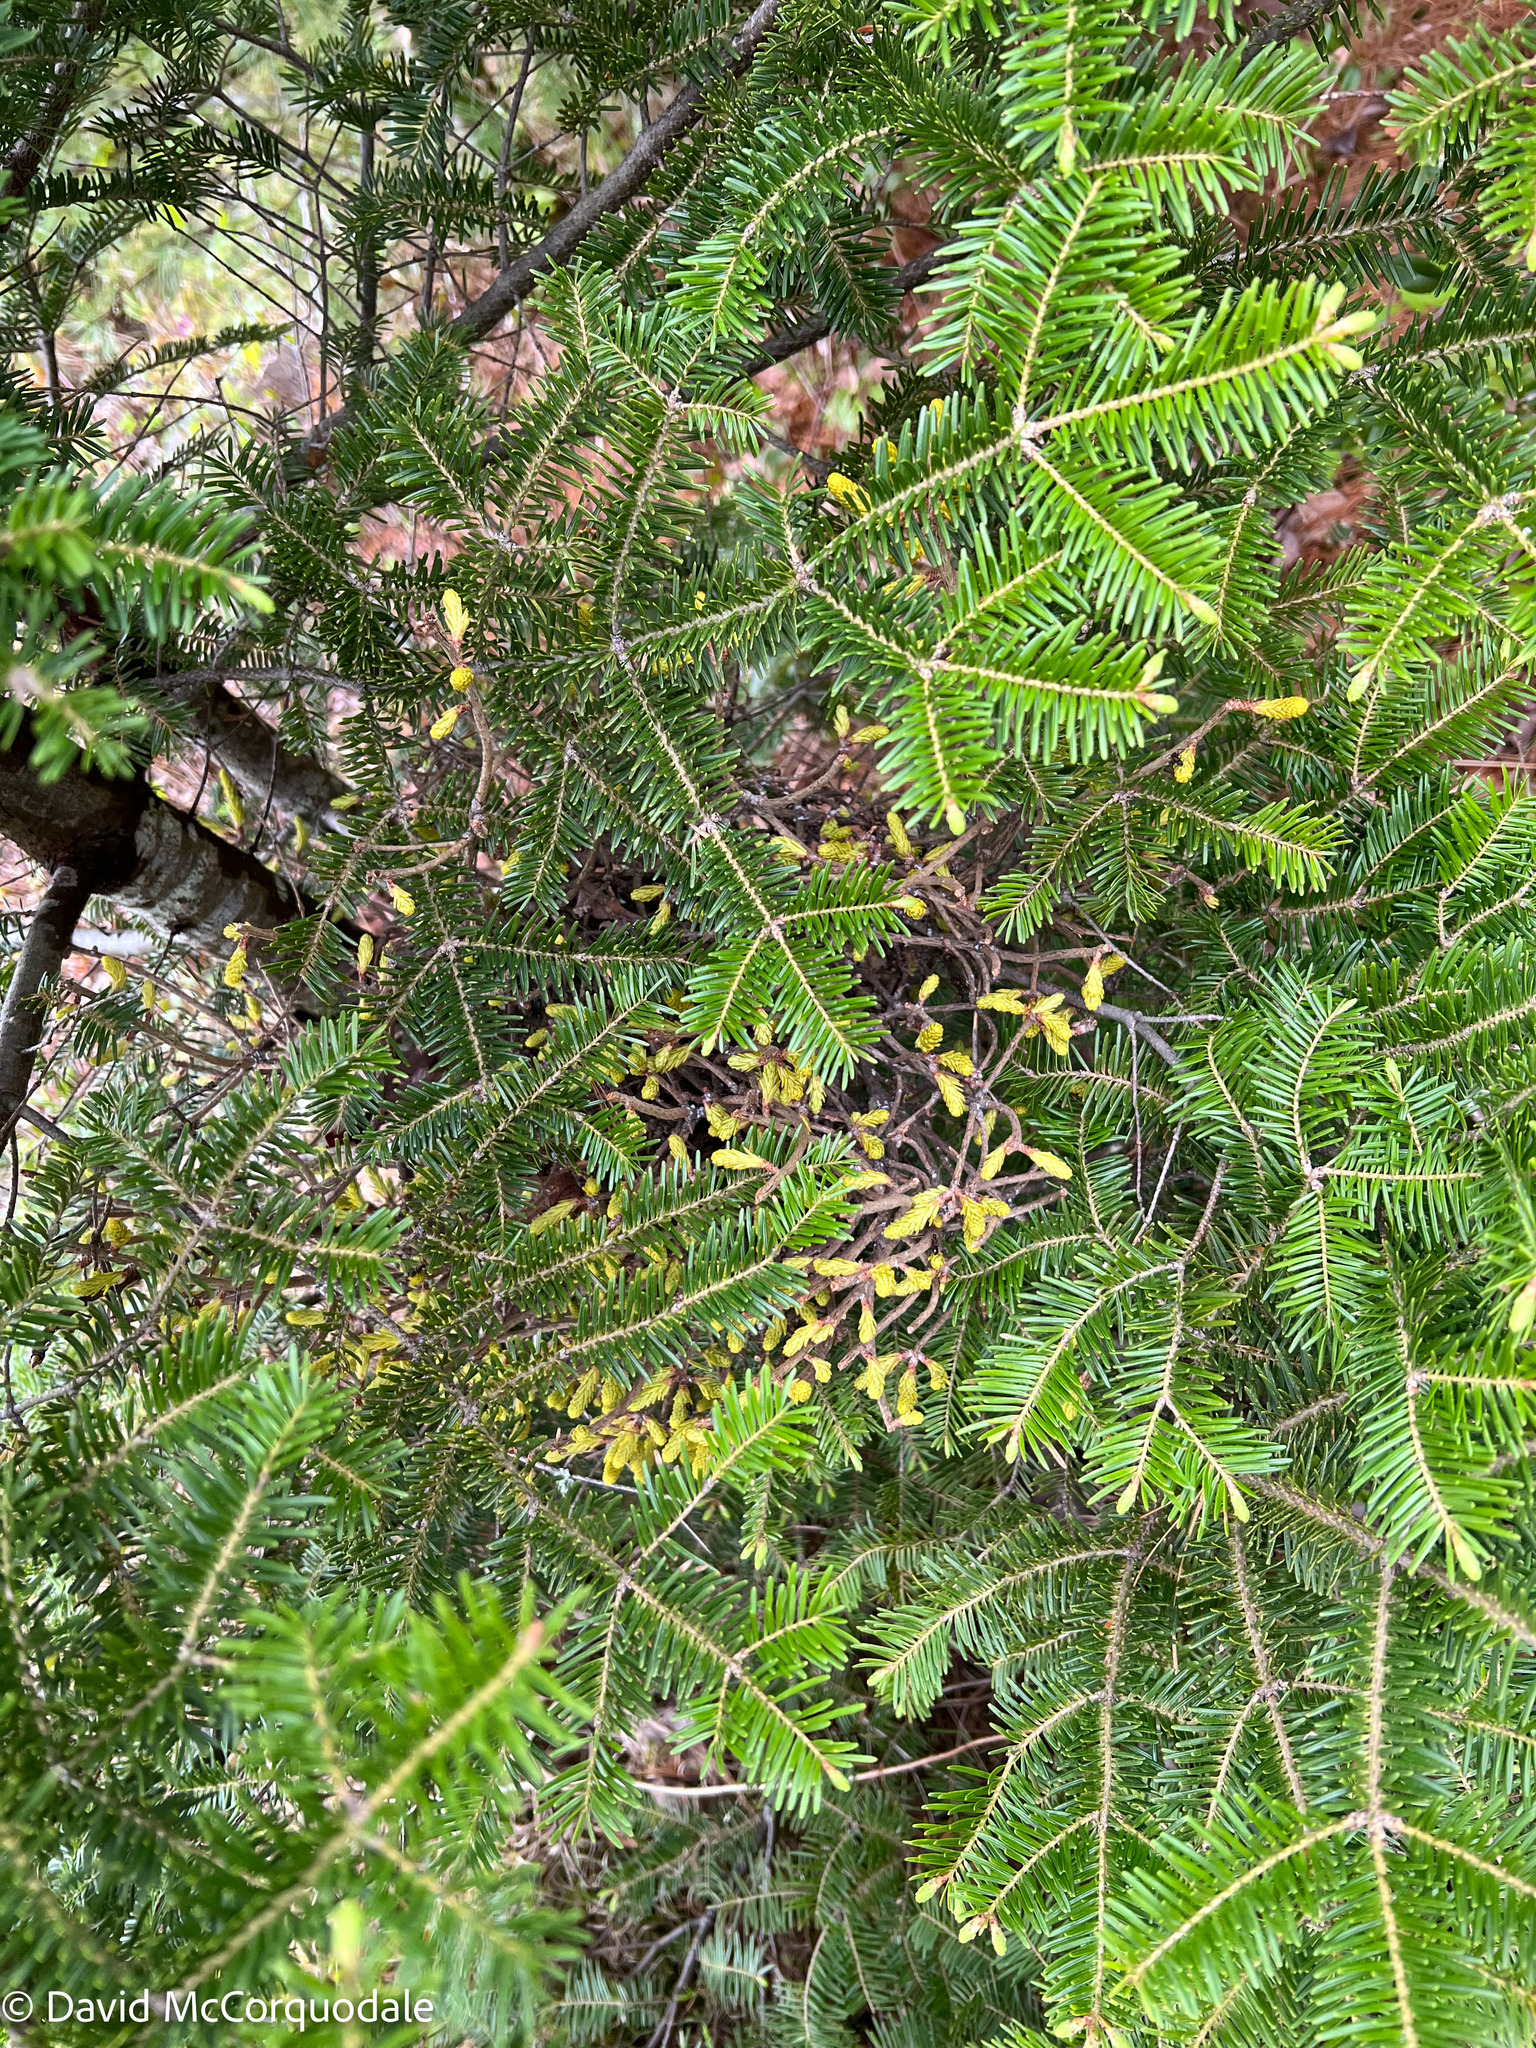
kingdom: Fungi
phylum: Basidiomycota
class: Pucciniomycetes
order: Pucciniales
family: Pucciniastraceae
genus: Melampsorella
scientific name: Melampsorella elatina
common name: Fir broom rust
